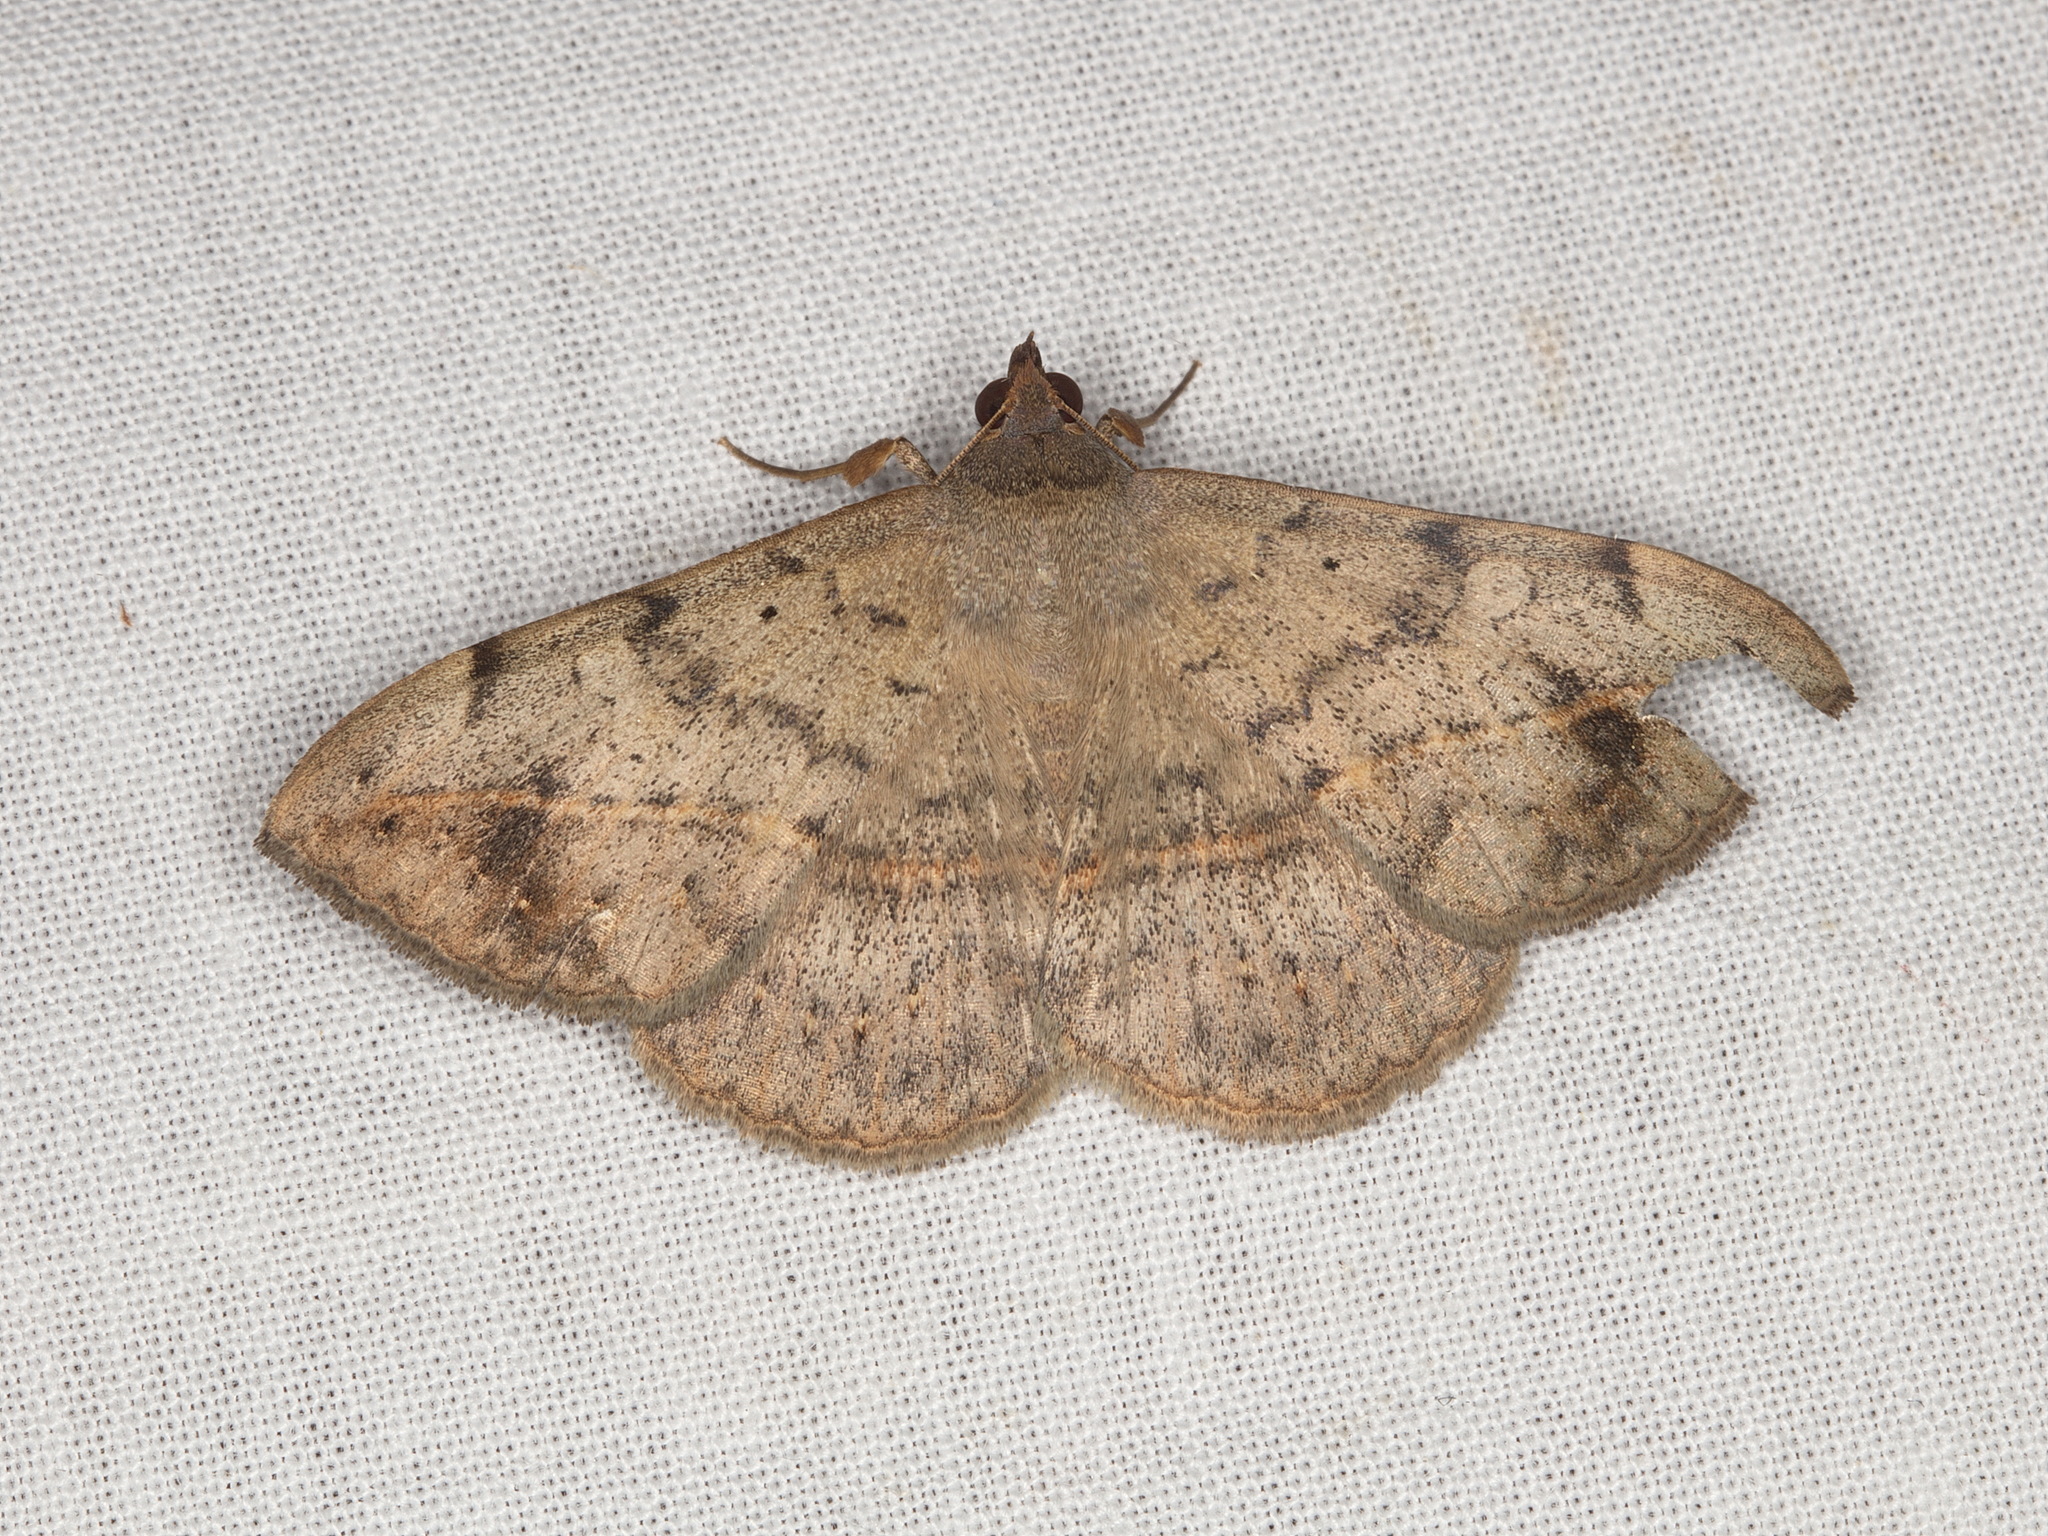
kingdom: Animalia
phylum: Arthropoda
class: Insecta
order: Lepidoptera
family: Erebidae
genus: Anticarsia
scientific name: Anticarsia gemmatalis
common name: Cutworm moth
